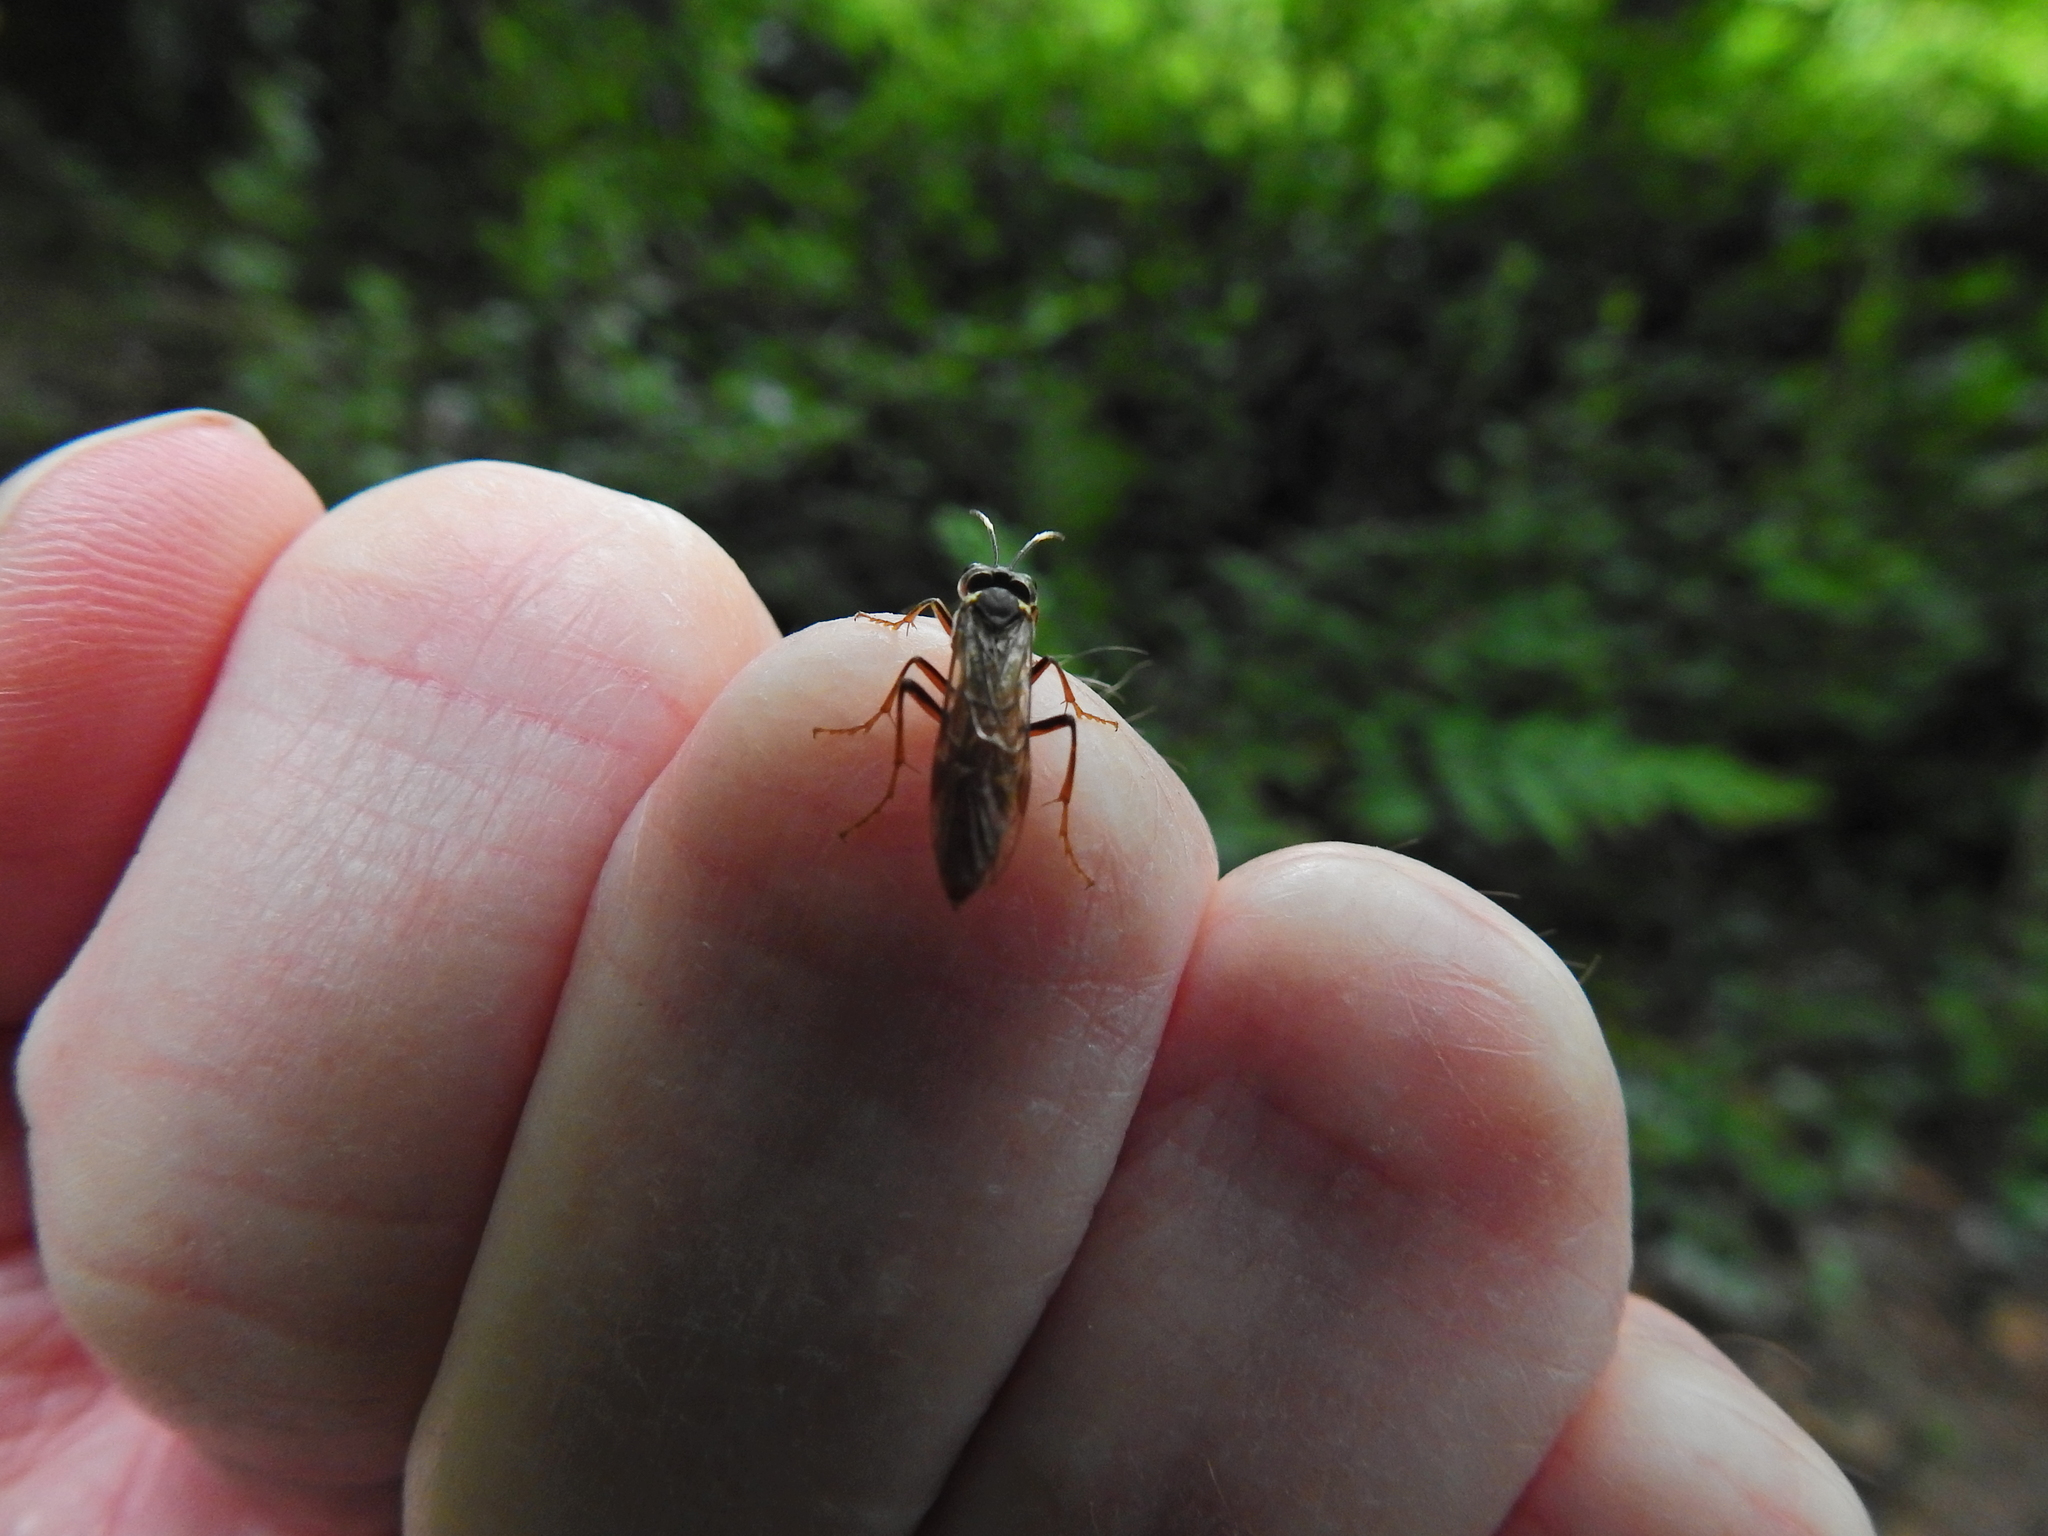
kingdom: Animalia
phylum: Arthropoda
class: Insecta
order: Hymenoptera
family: Tenthredinidae
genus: Tenthredo
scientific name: Tenthredo ferruginea
